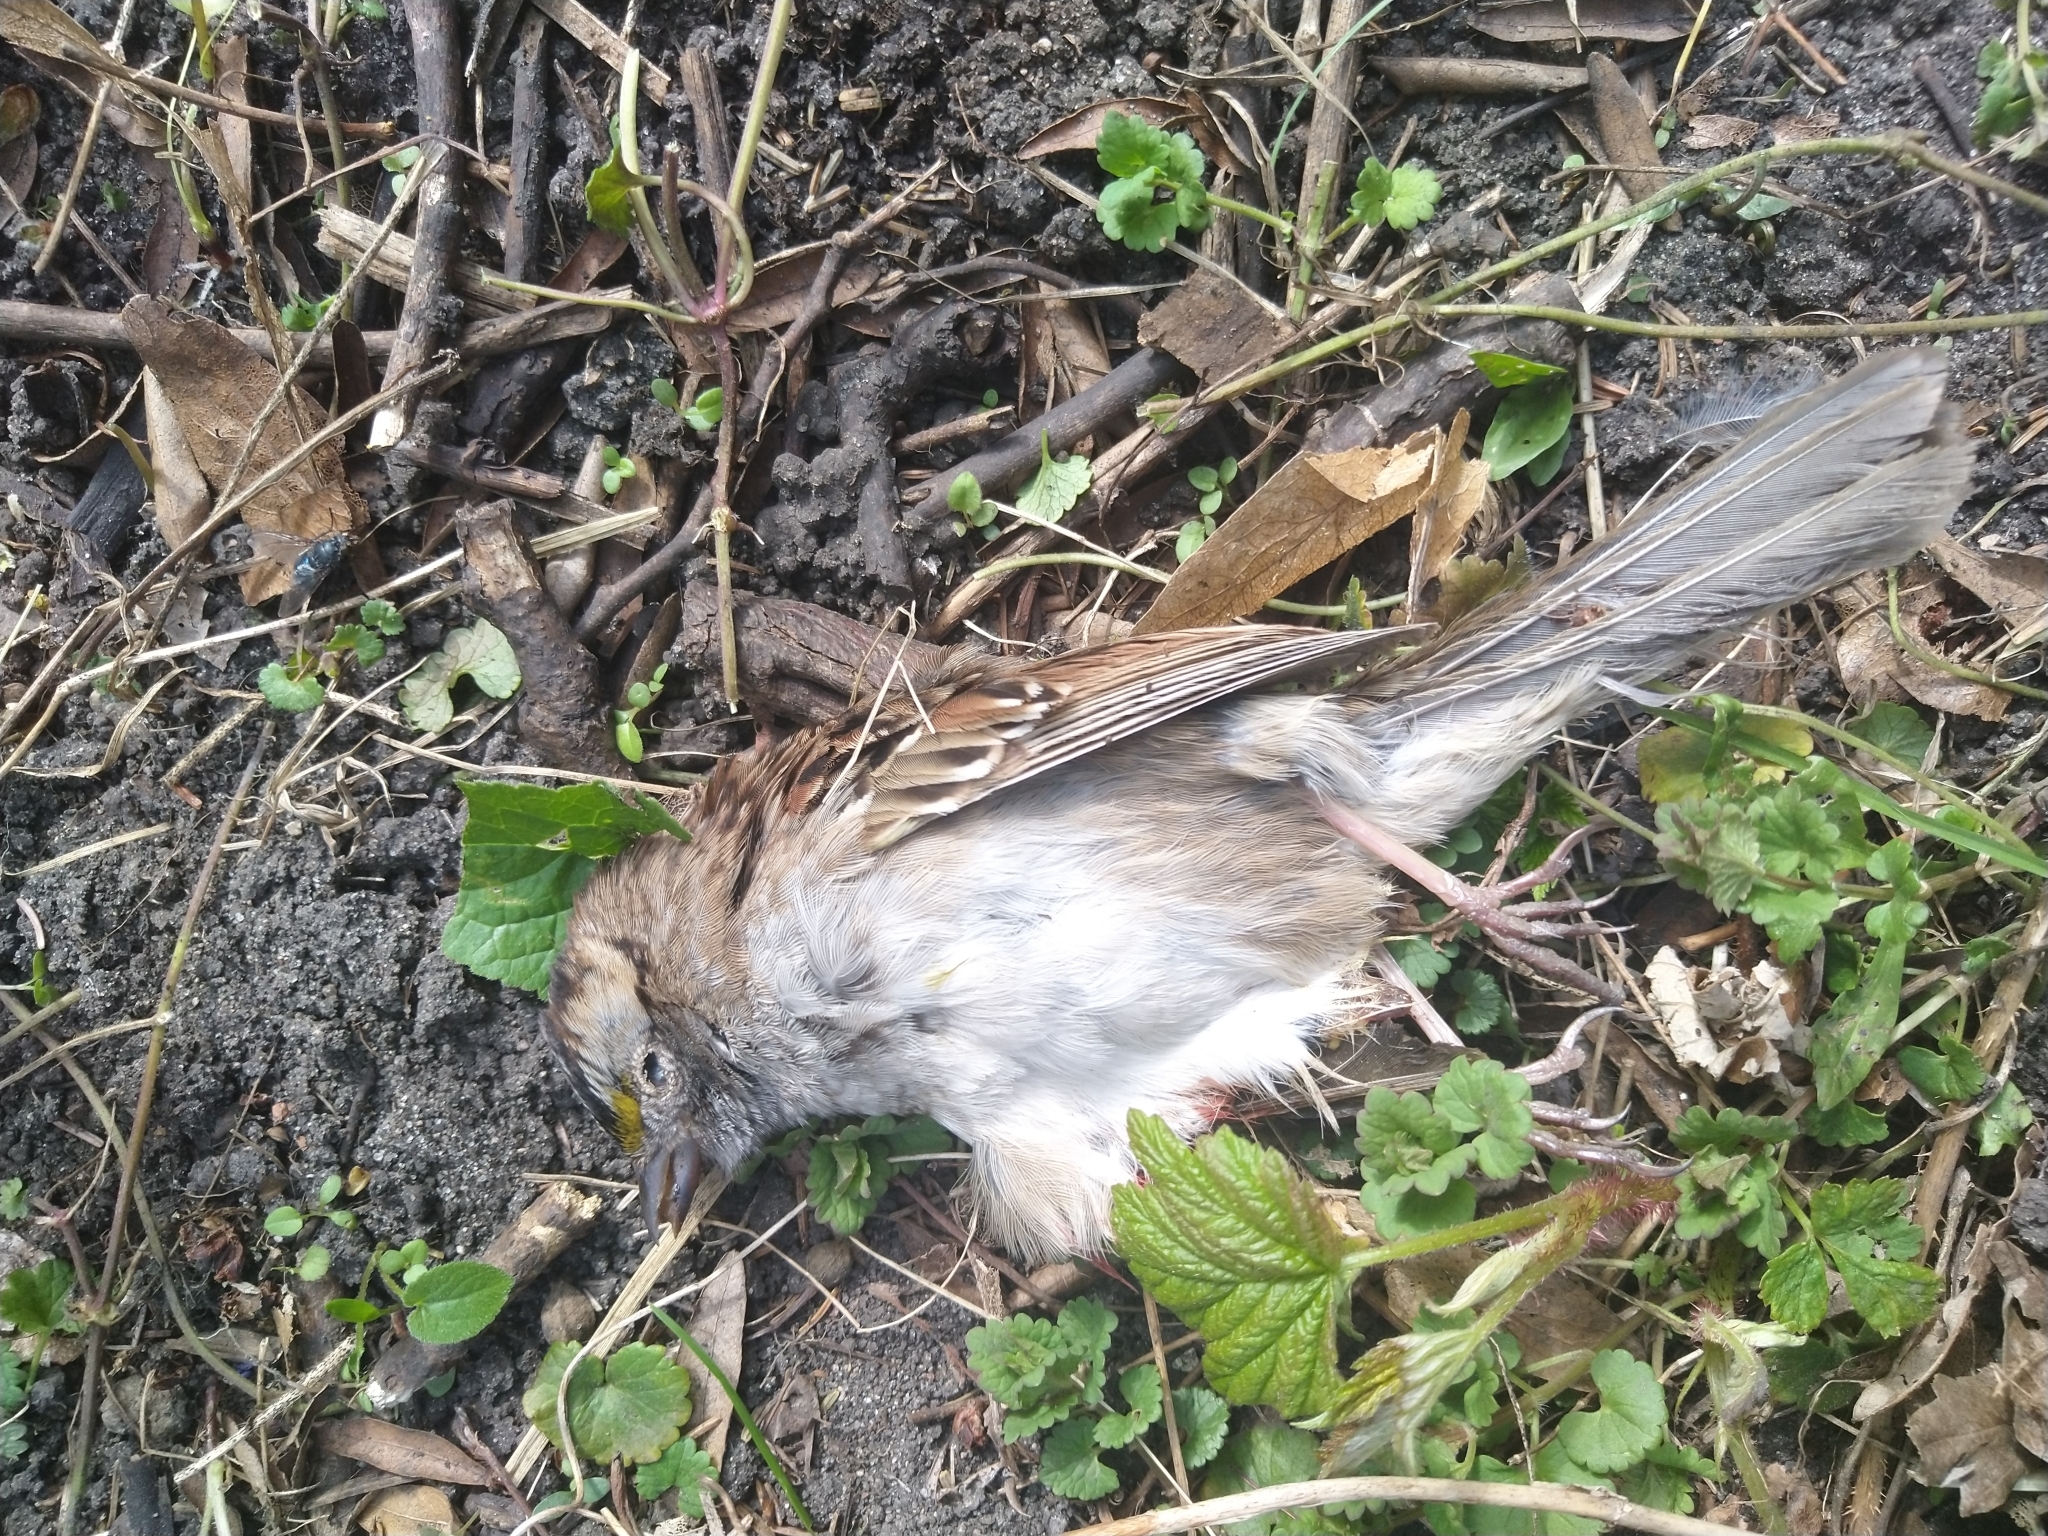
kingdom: Animalia
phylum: Chordata
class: Aves
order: Passeriformes
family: Passerellidae
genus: Zonotrichia
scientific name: Zonotrichia albicollis
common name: White-throated sparrow
